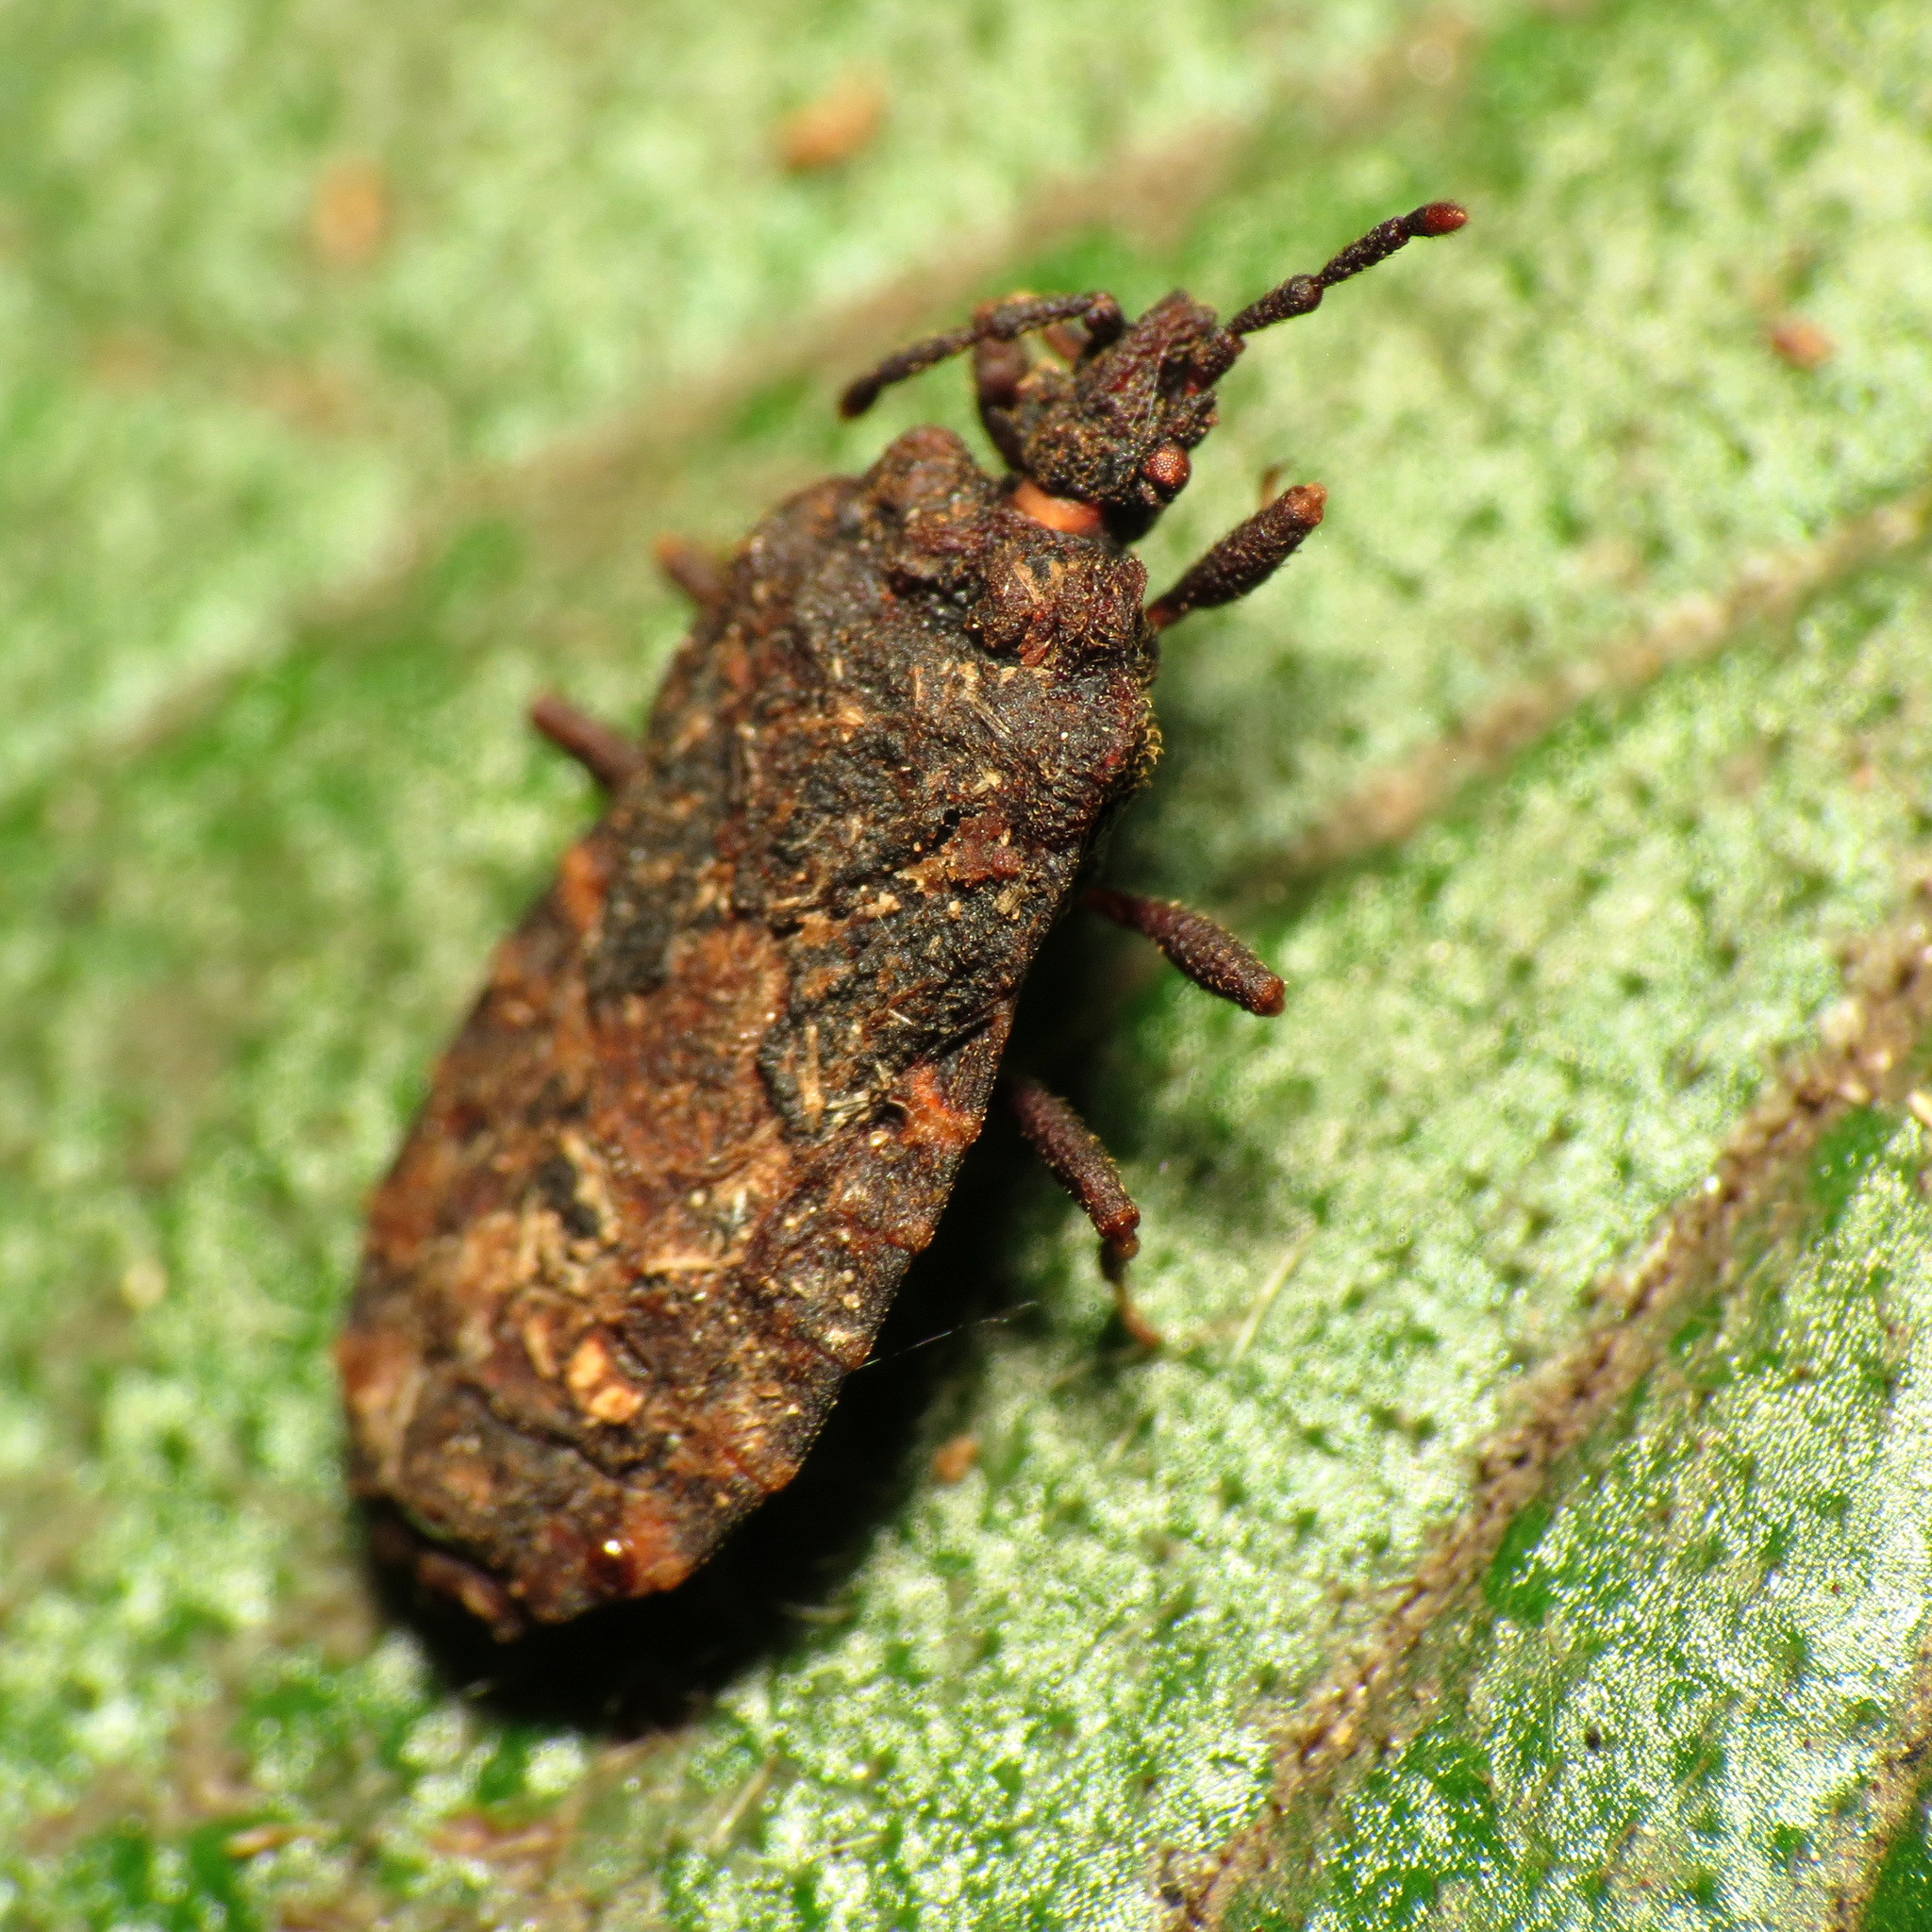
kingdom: Animalia
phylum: Arthropoda
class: Insecta
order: Hemiptera
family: Aradidae
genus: Mezira
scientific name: Mezira
